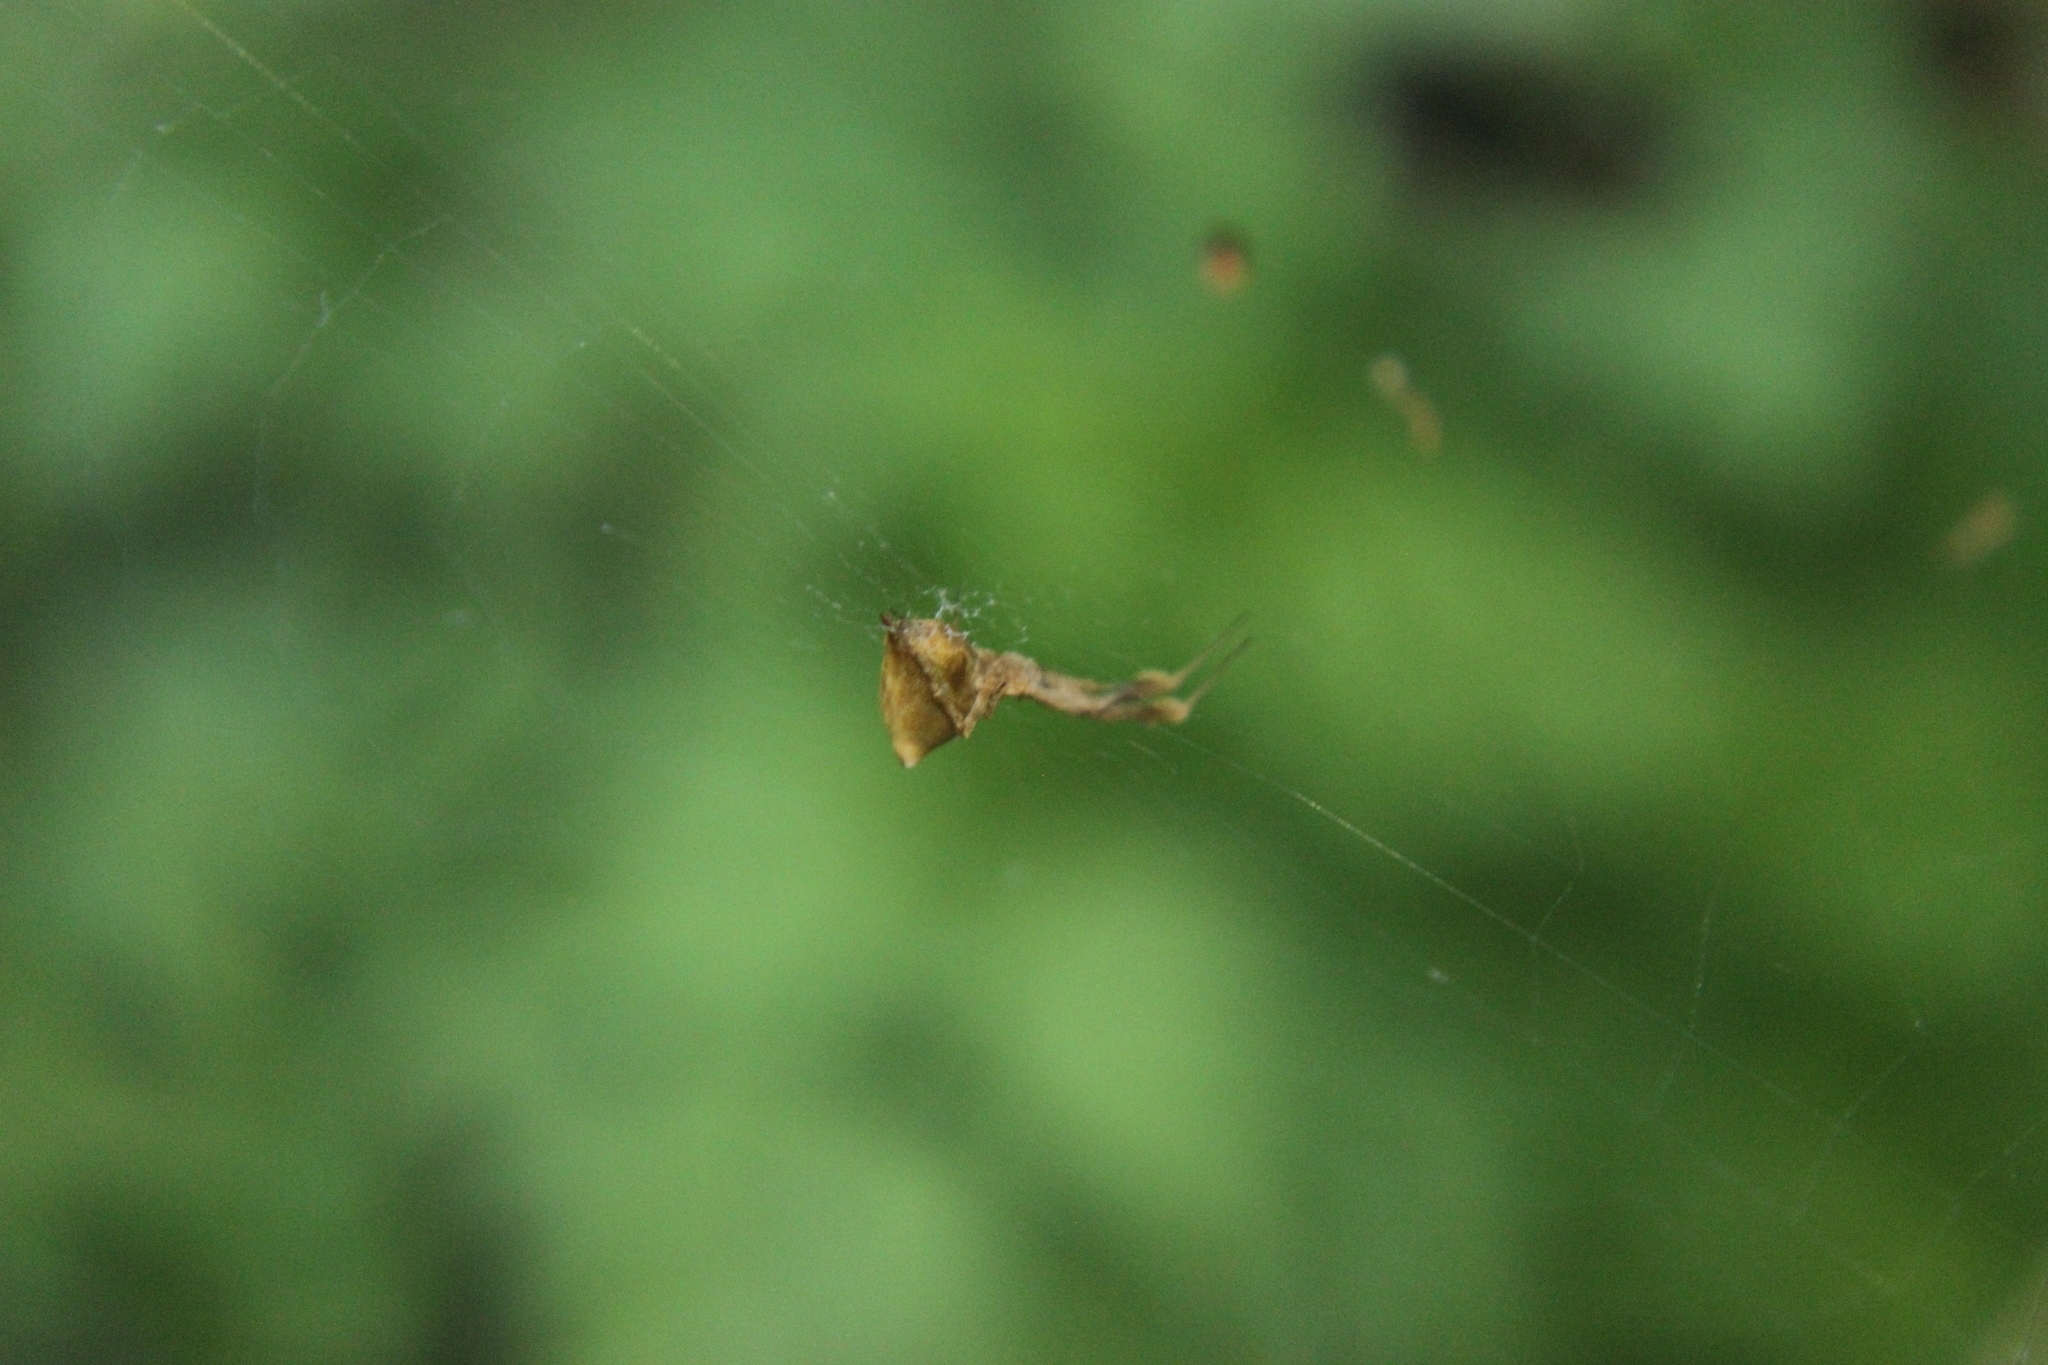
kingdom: Animalia
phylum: Arthropoda
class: Arachnida
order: Araneae
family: Uloboridae
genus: Uloborus
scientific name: Uloborus glomosus
